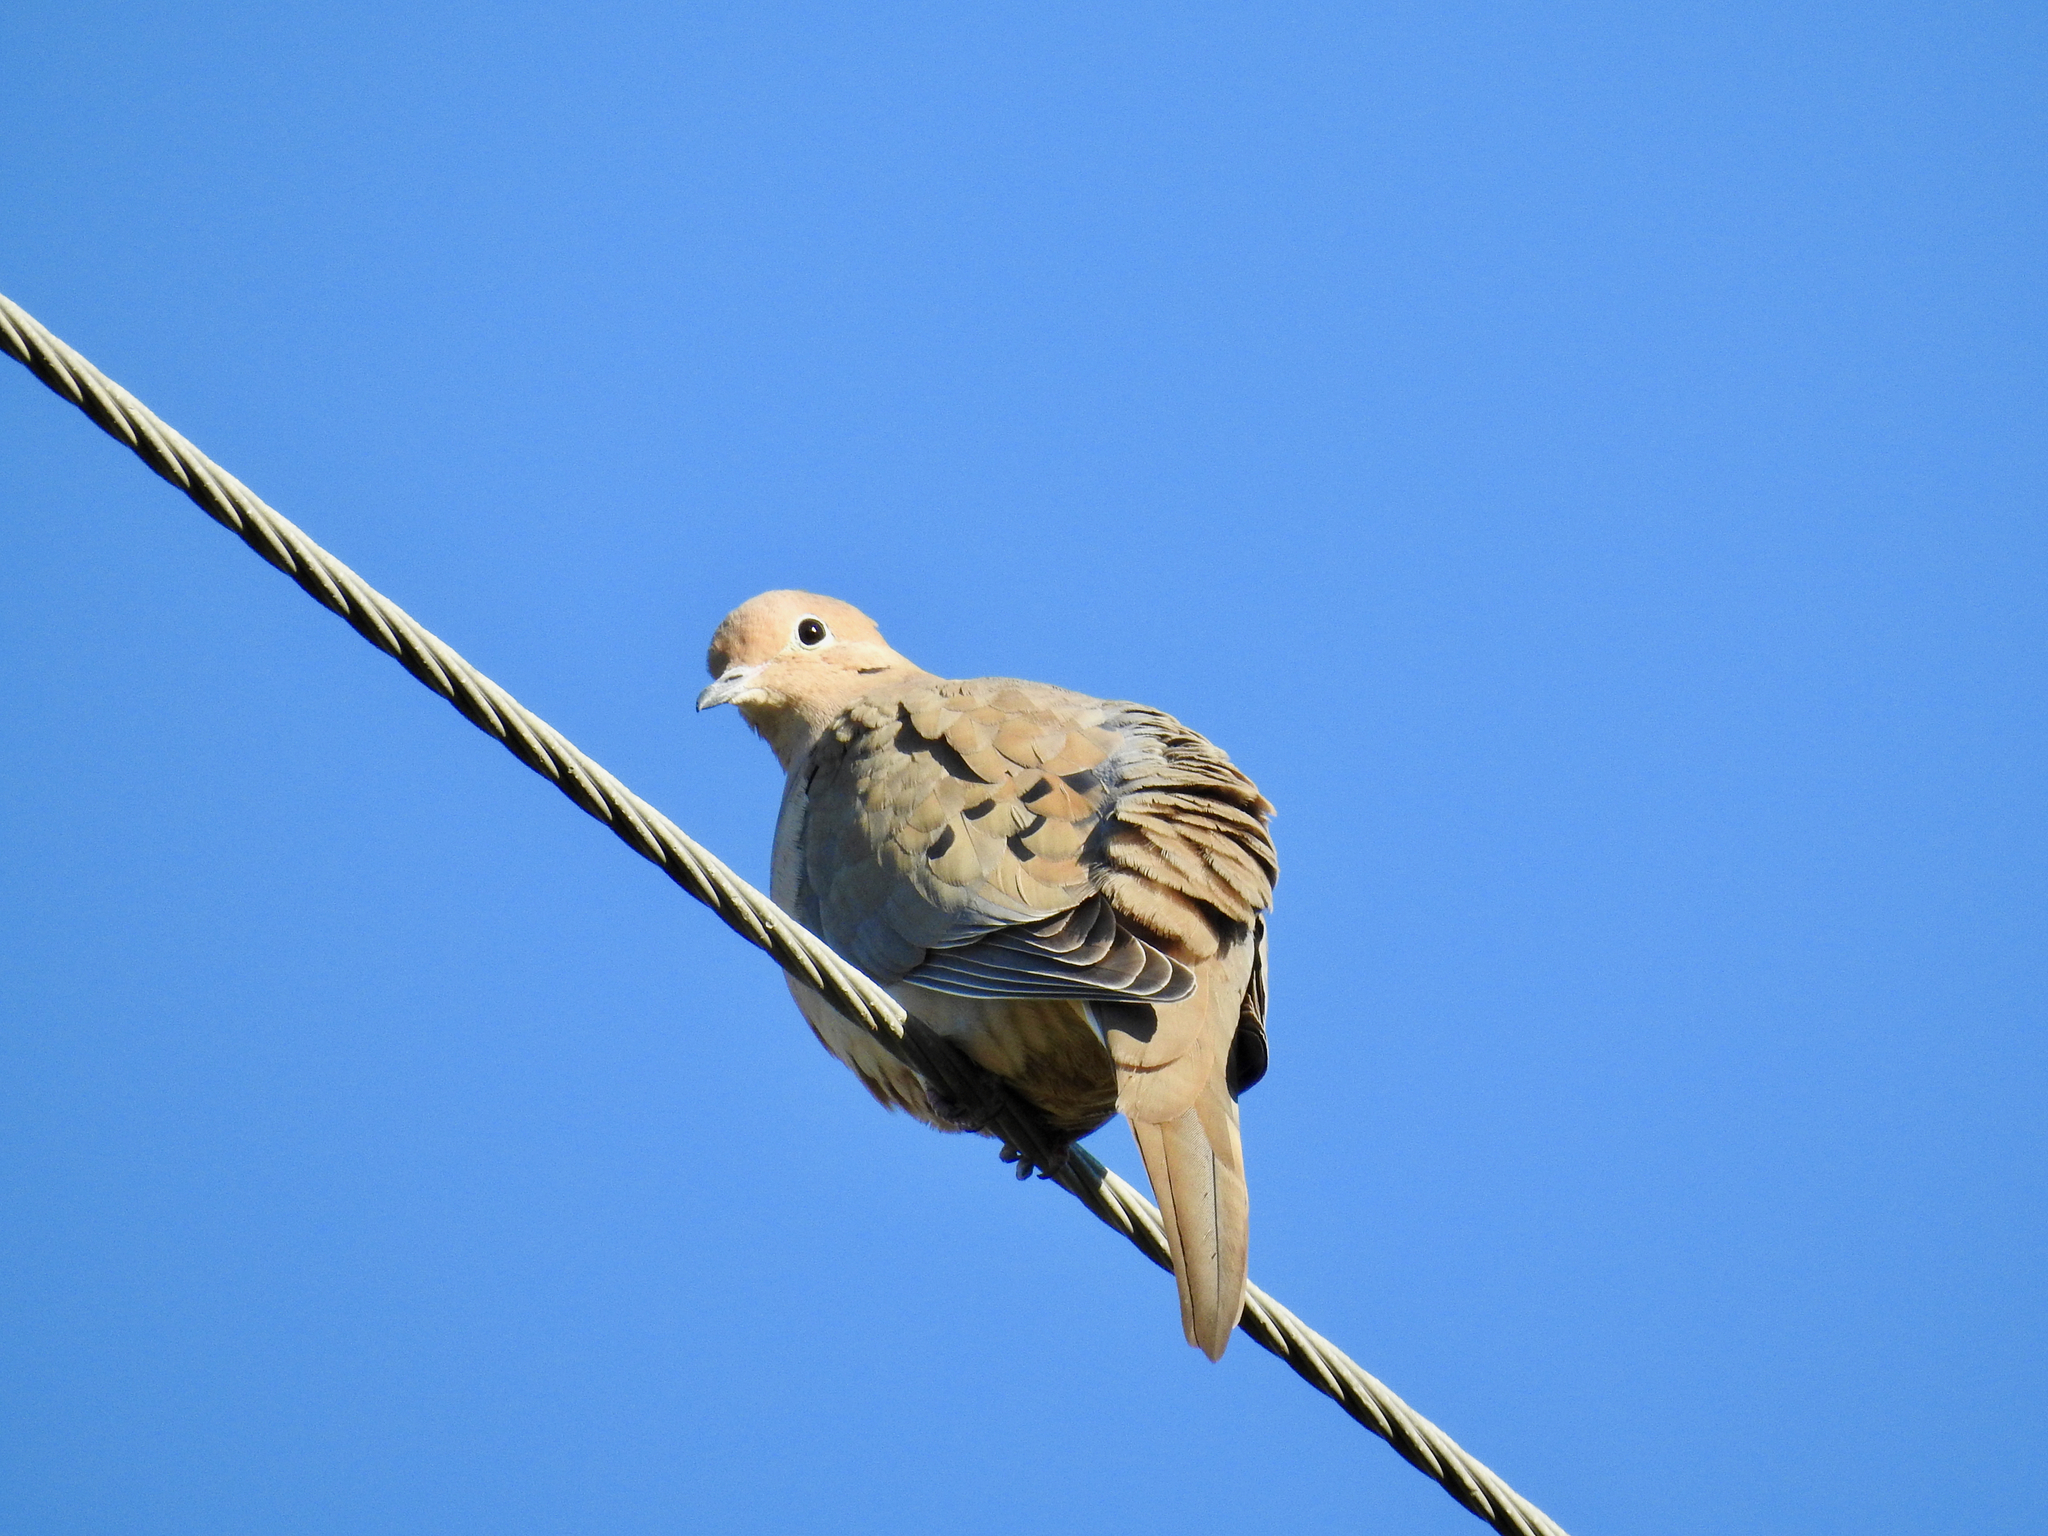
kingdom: Animalia
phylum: Chordata
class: Aves
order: Columbiformes
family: Columbidae
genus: Zenaida
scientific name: Zenaida macroura
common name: Mourning dove
